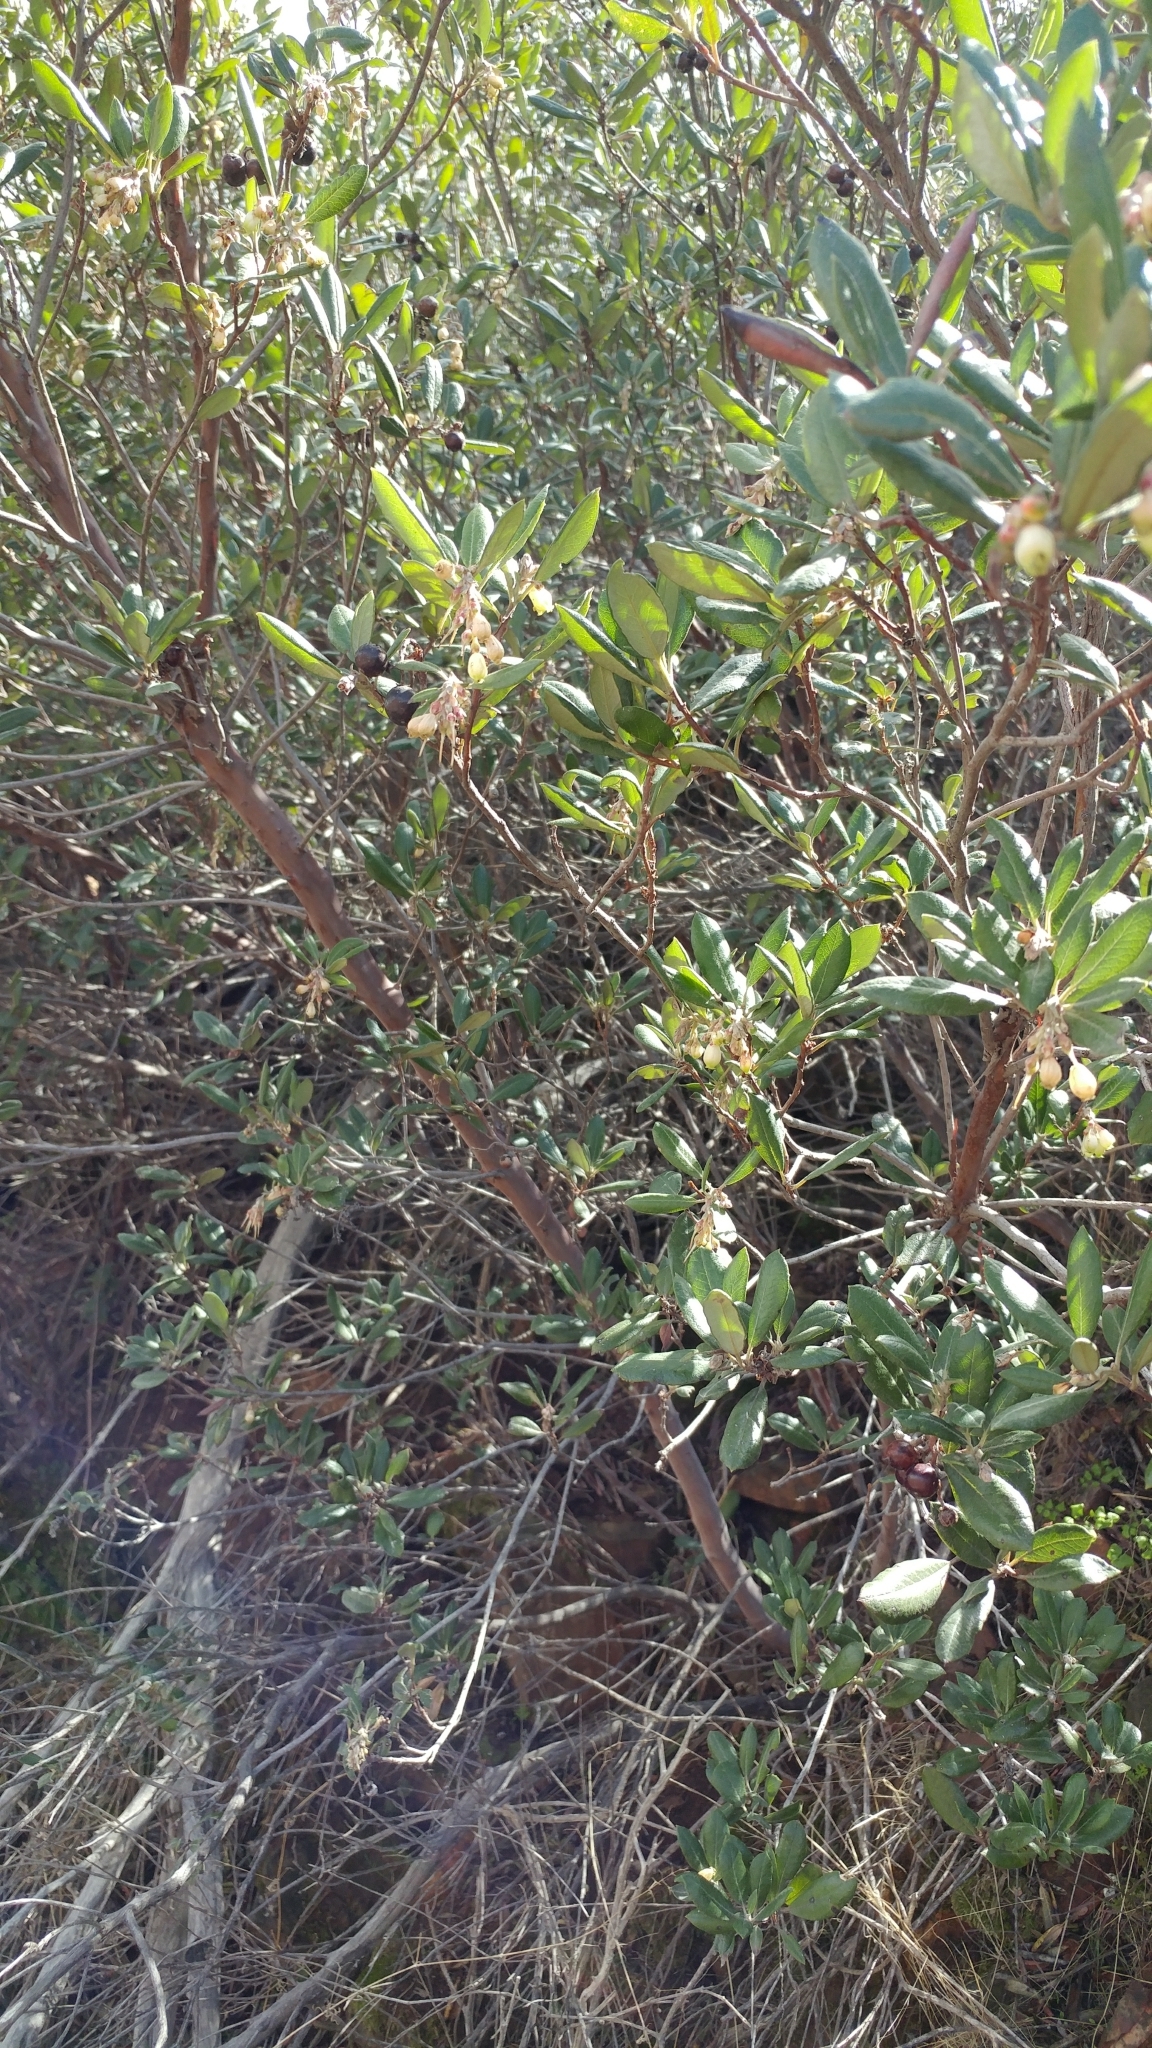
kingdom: Plantae
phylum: Tracheophyta
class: Magnoliopsida
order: Ericales
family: Ericaceae
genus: Arctostaphylos
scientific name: Arctostaphylos bicolor
